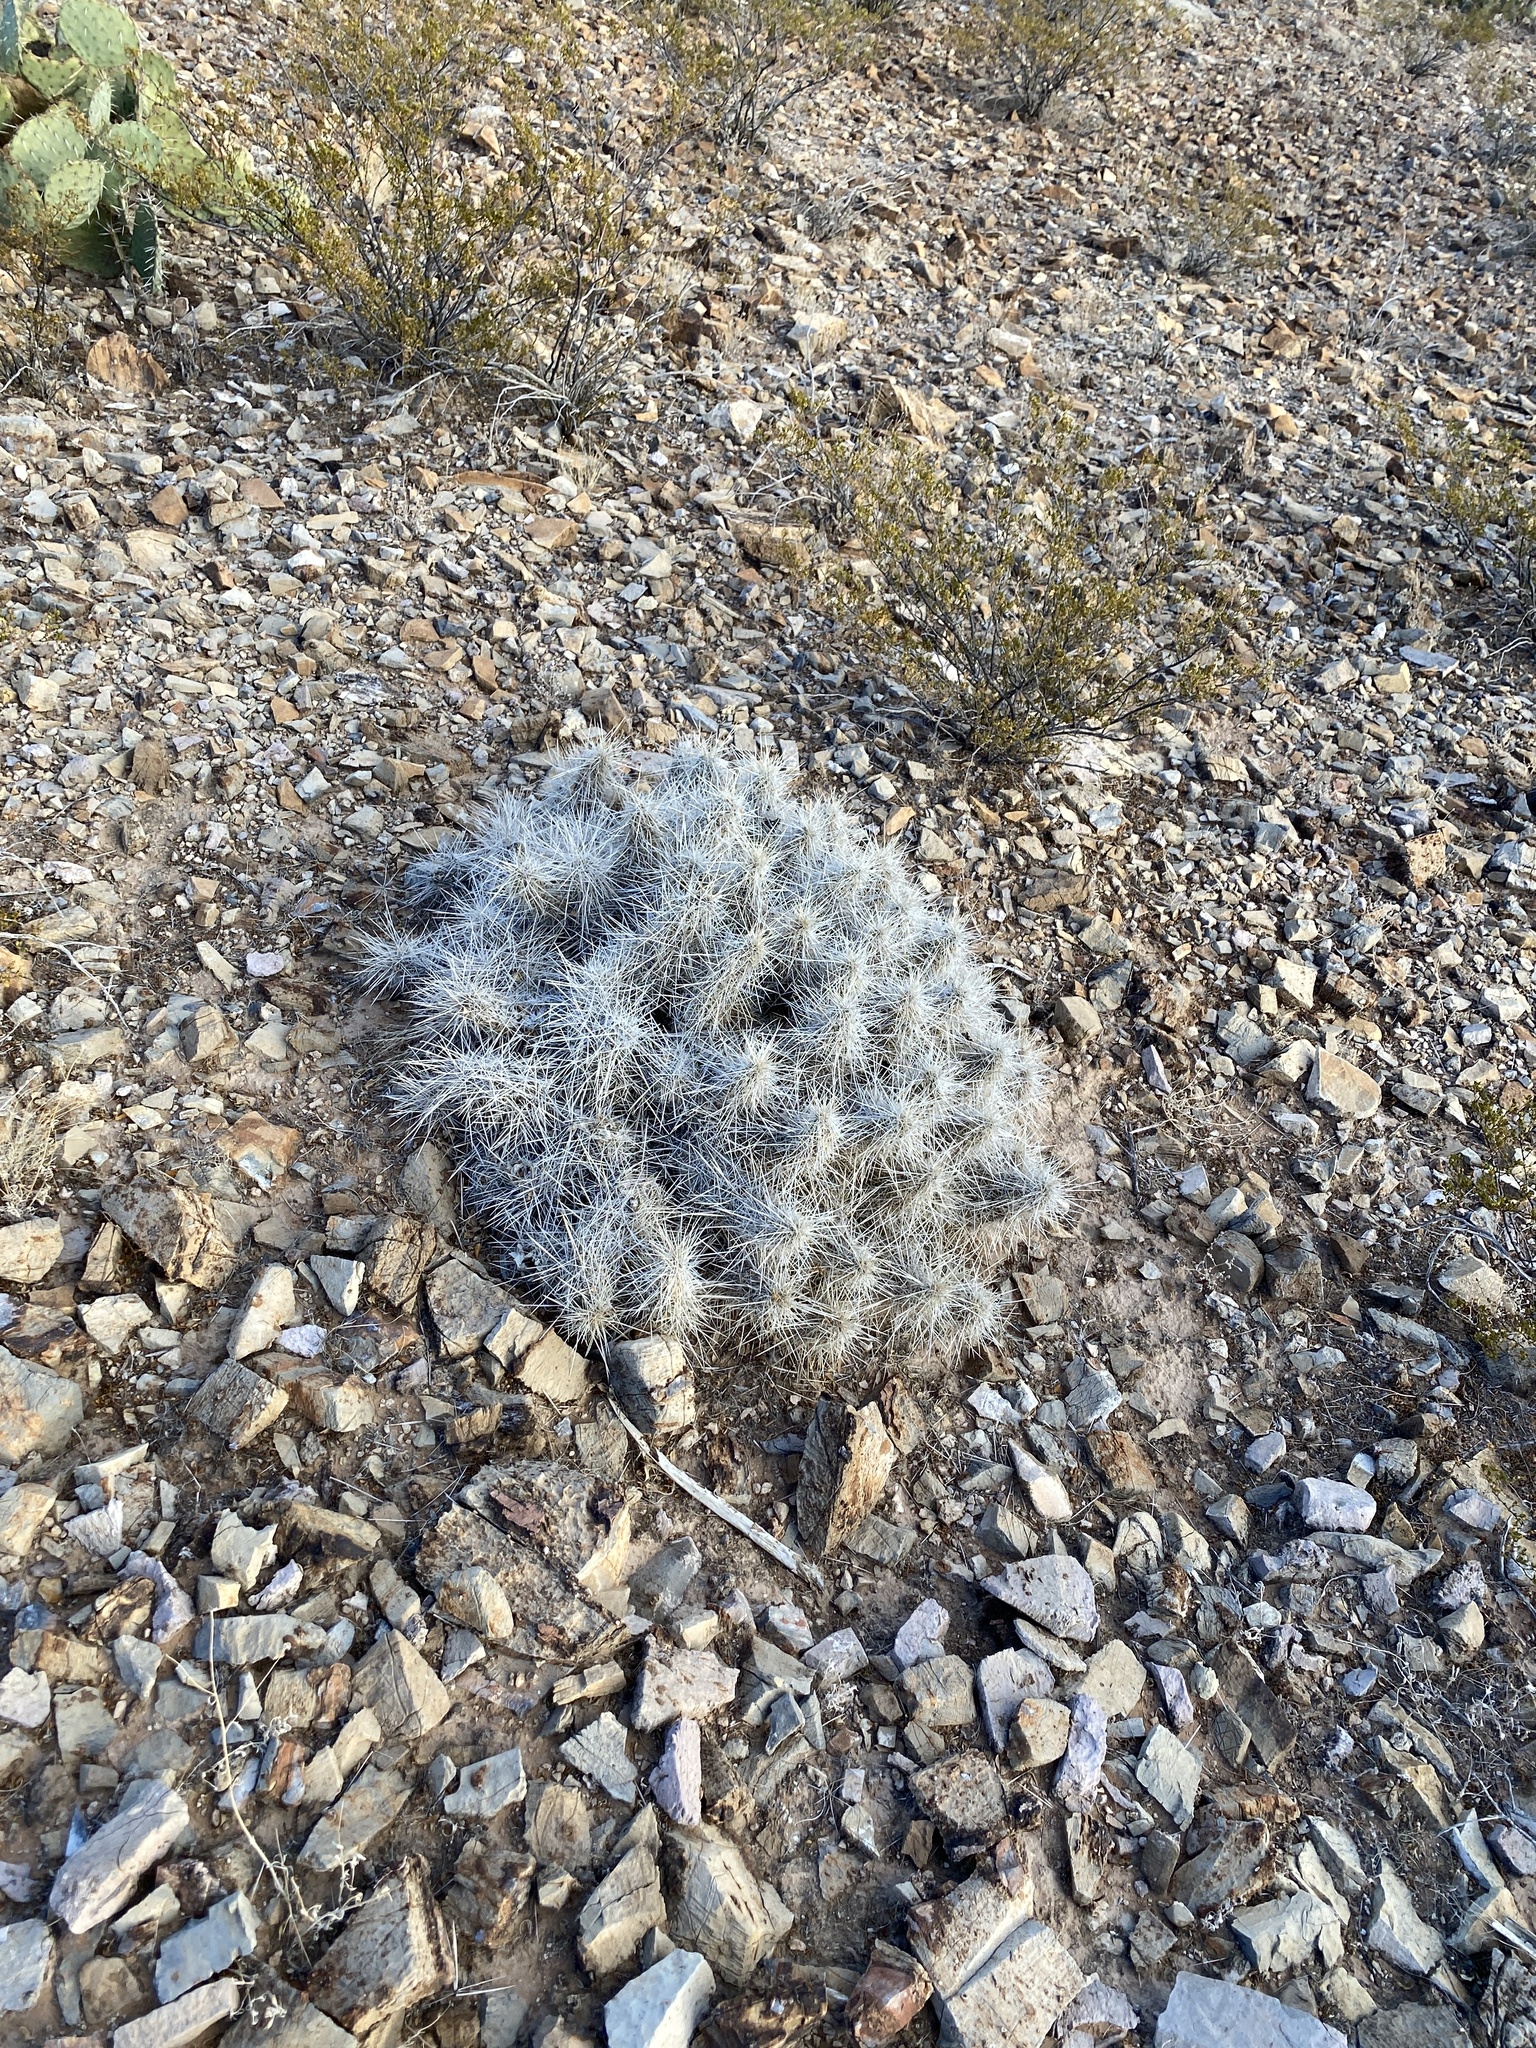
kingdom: Plantae
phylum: Tracheophyta
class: Magnoliopsida
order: Caryophyllales
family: Cactaceae
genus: Echinocereus
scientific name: Echinocereus stramineus
